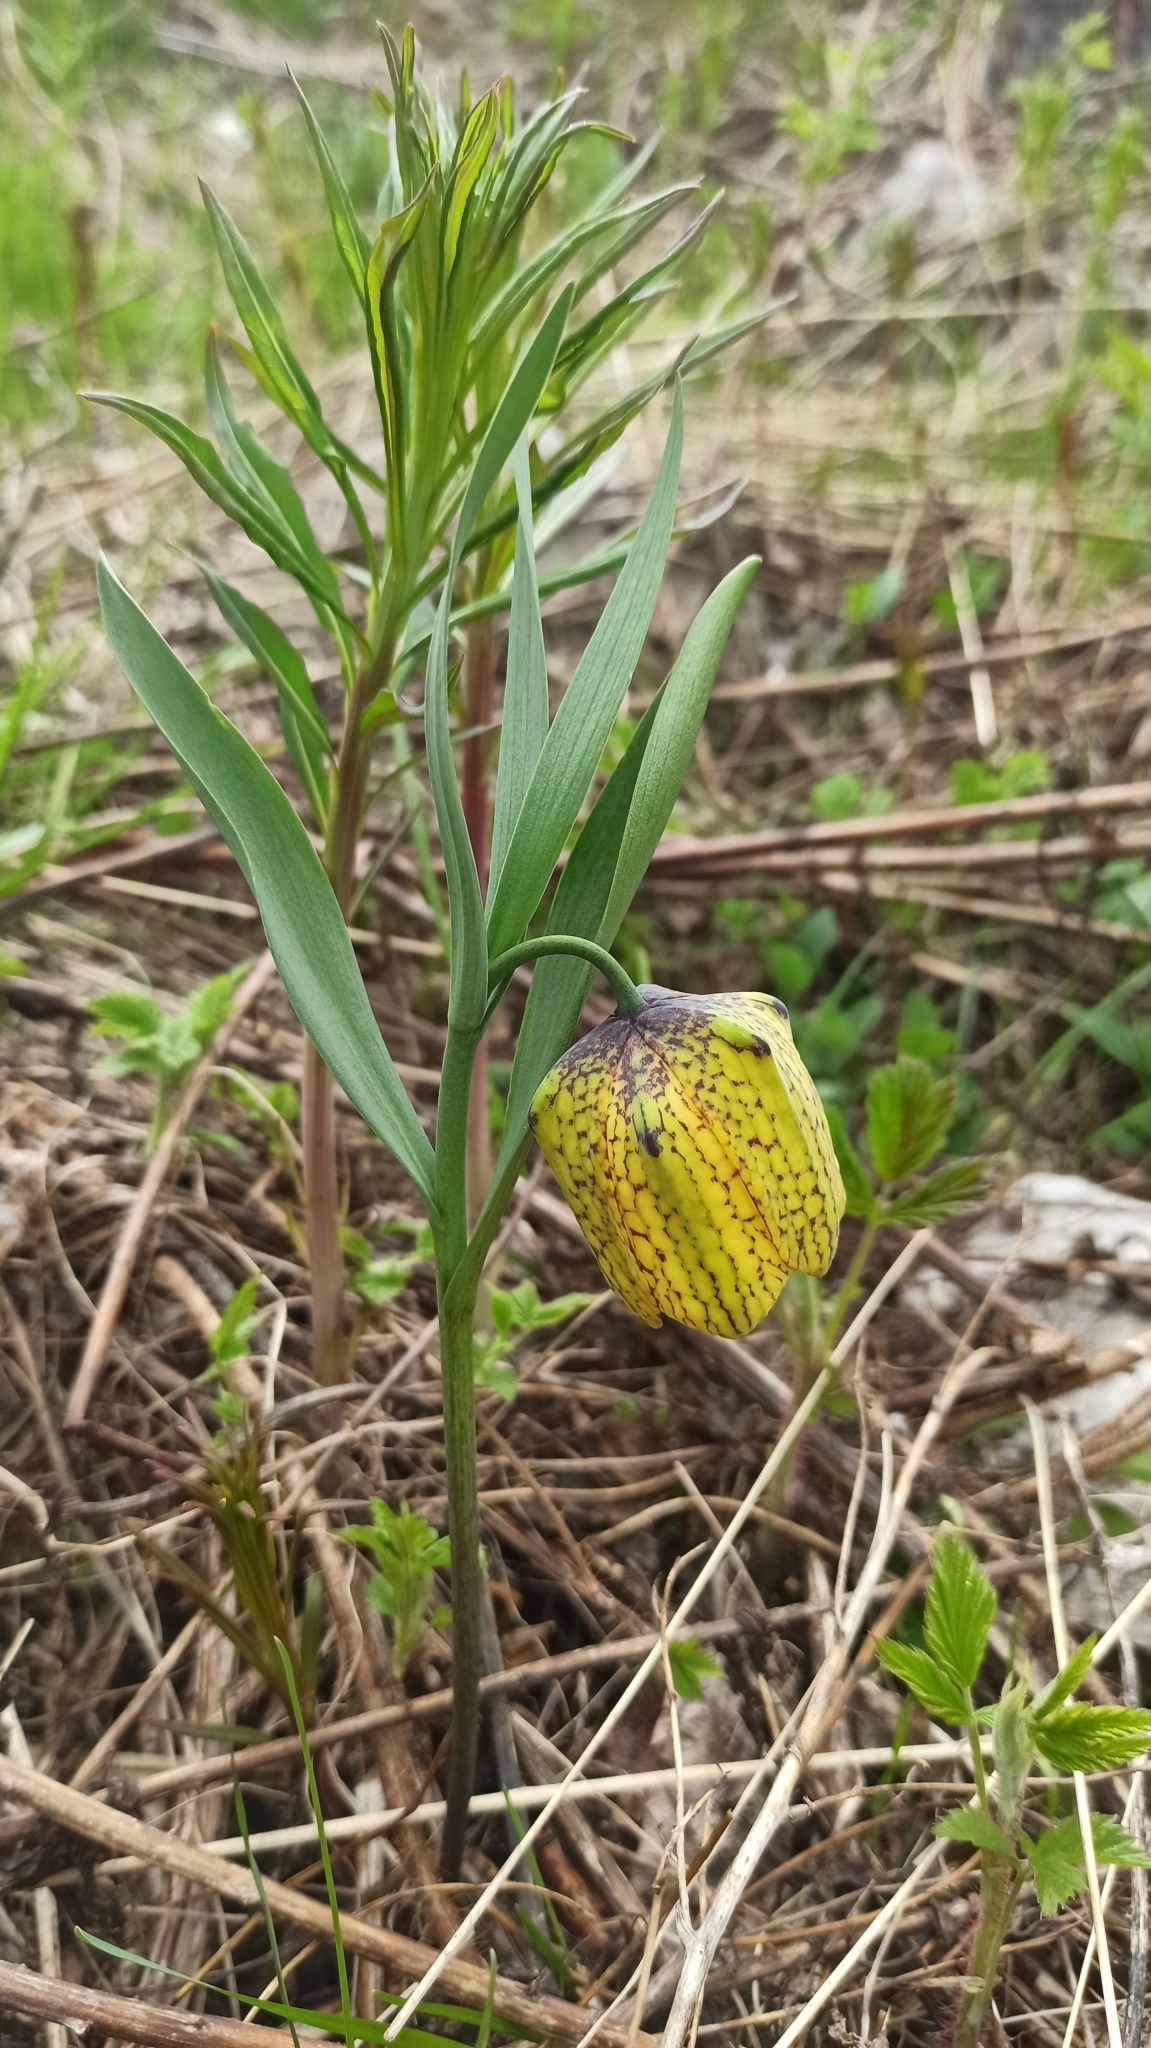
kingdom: Plantae
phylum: Tracheophyta
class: Liliopsida
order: Liliales
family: Liliaceae
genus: Fritillaria
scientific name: Fritillaria collina
